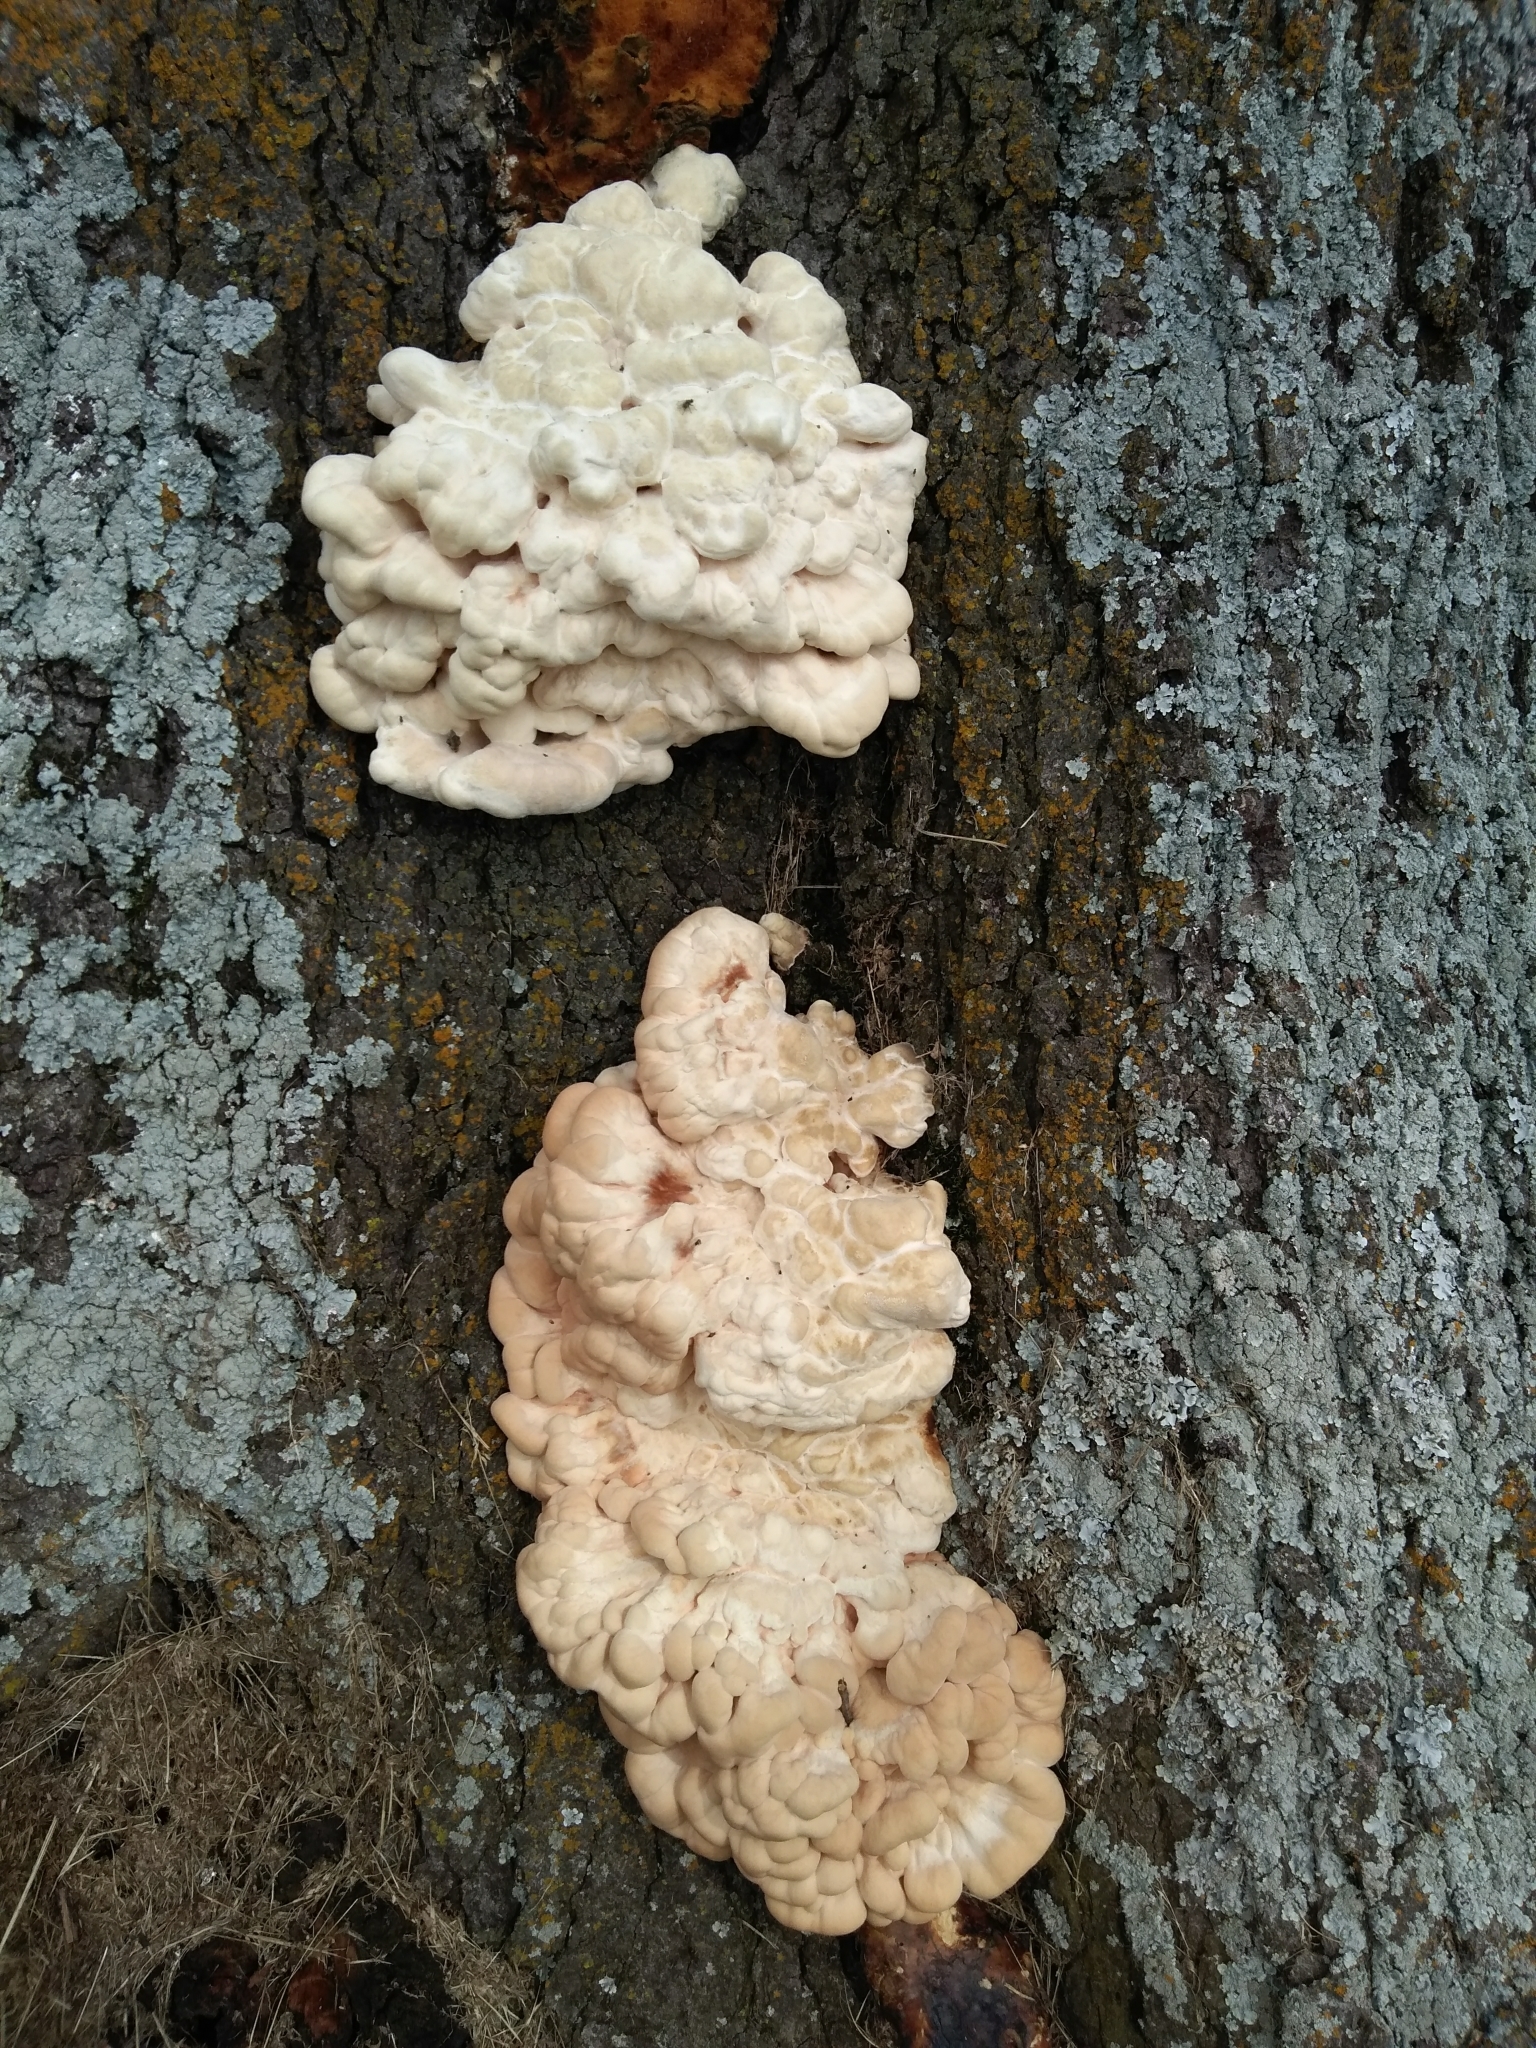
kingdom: Fungi
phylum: Basidiomycota
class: Agaricomycetes
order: Polyporales
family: Laetiporaceae
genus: Laetiporus
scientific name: Laetiporus sulphureus
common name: Chicken of the woods
